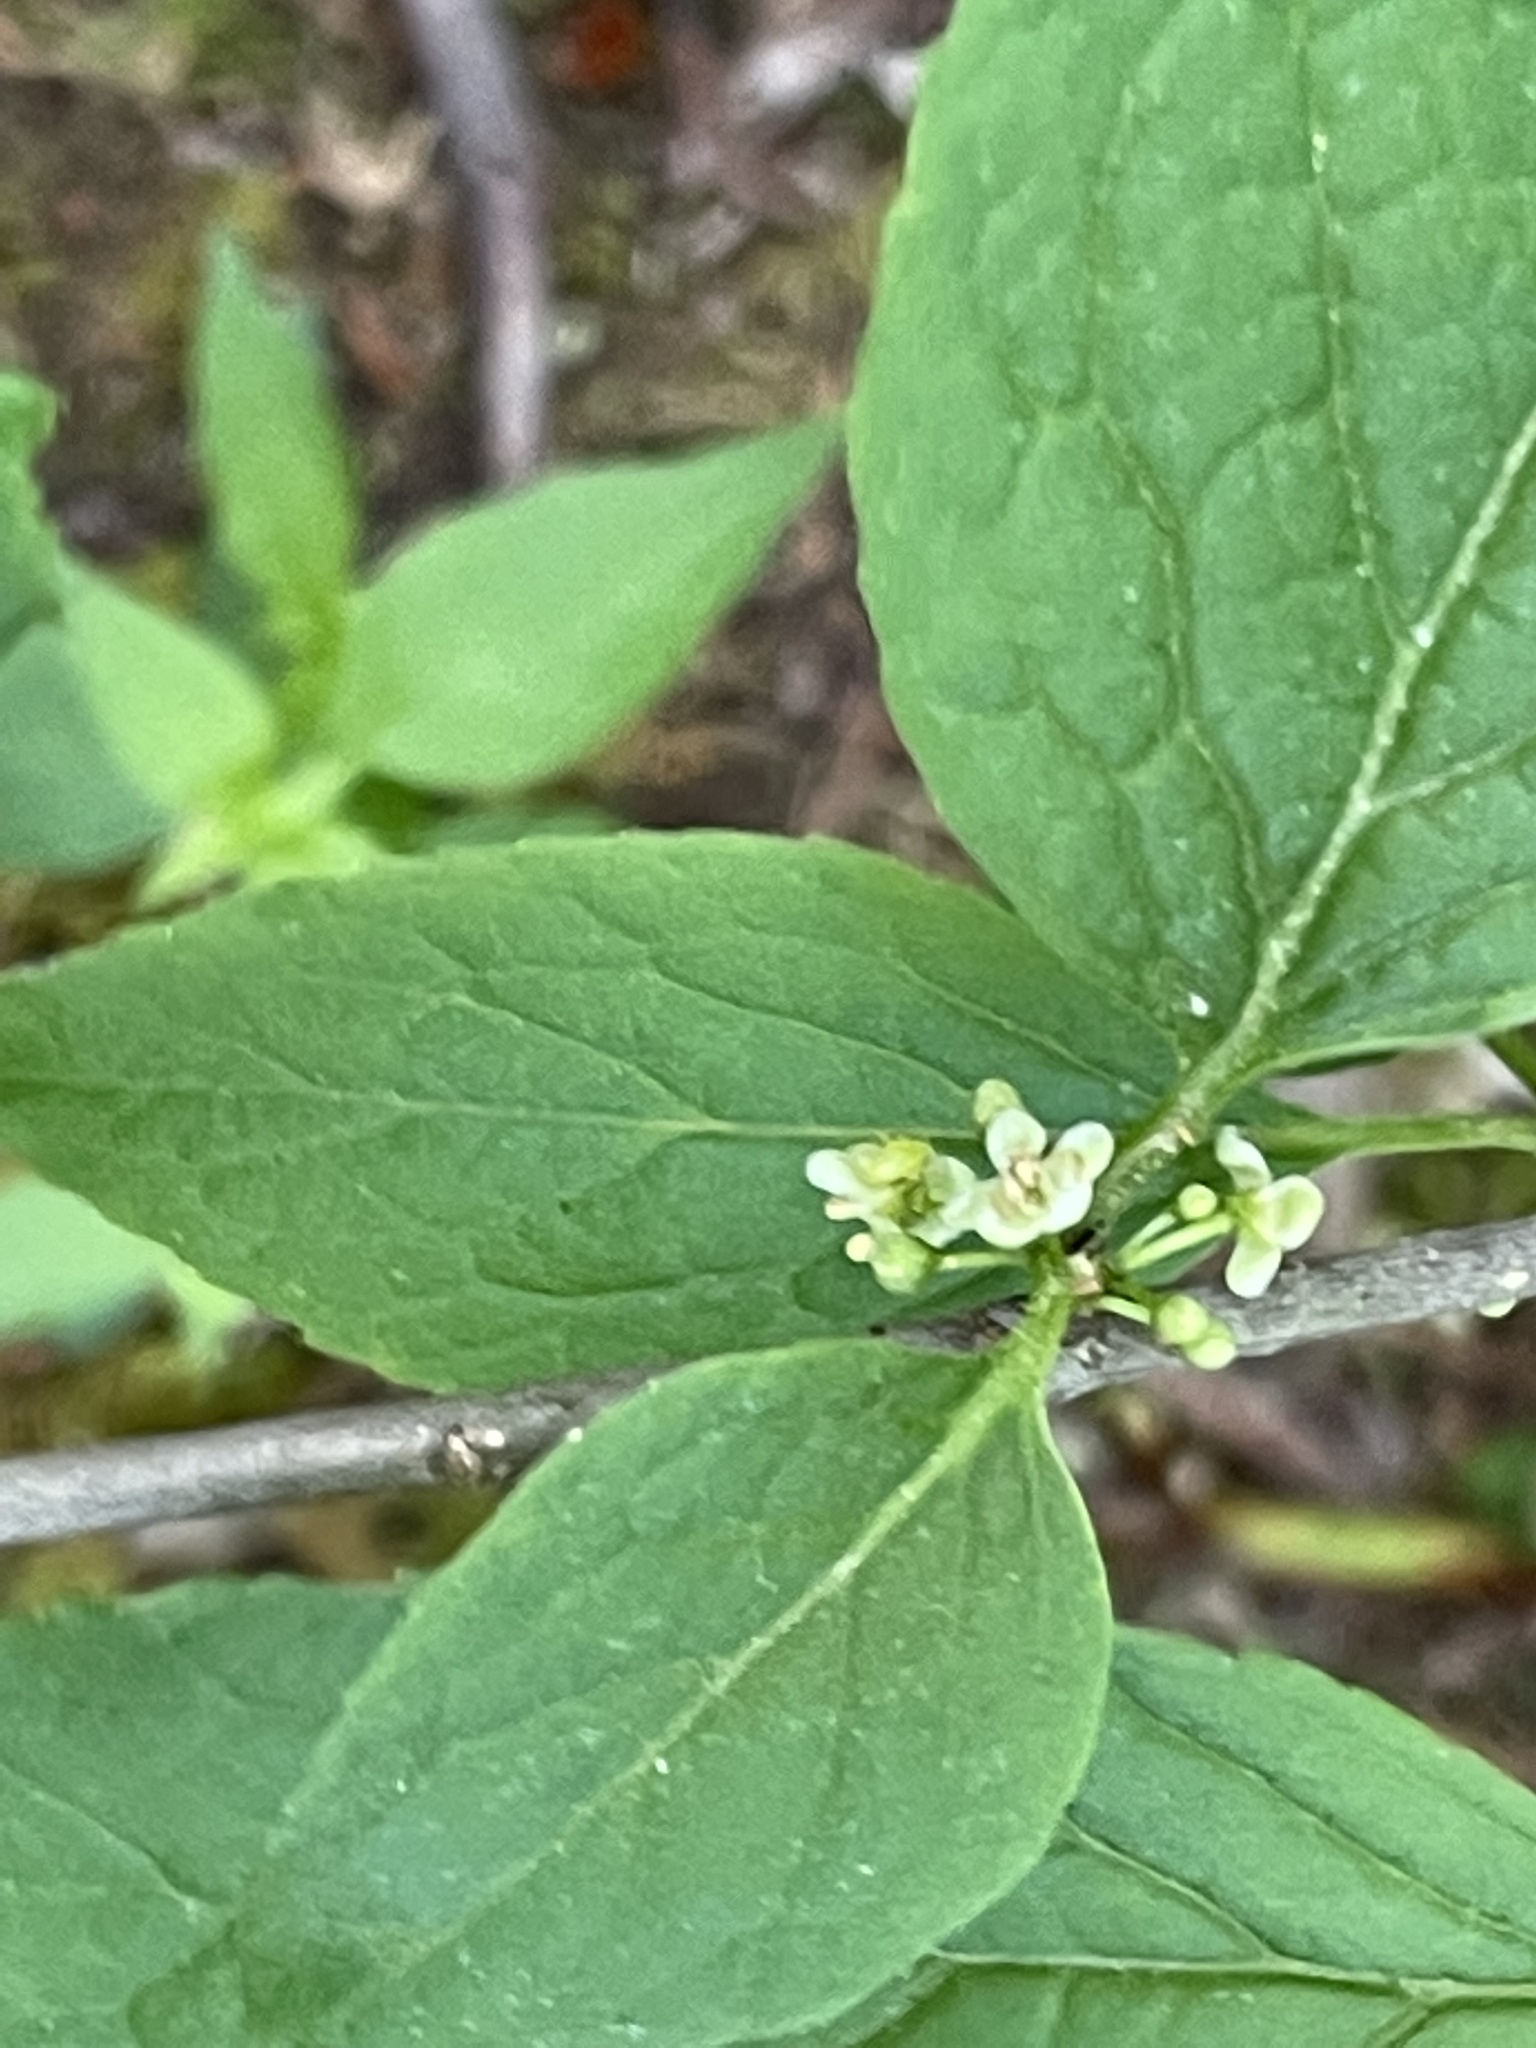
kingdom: Plantae
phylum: Tracheophyta
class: Magnoliopsida
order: Aquifoliales
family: Aquifoliaceae
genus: Ilex
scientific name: Ilex montana
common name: Mountain winterberry
